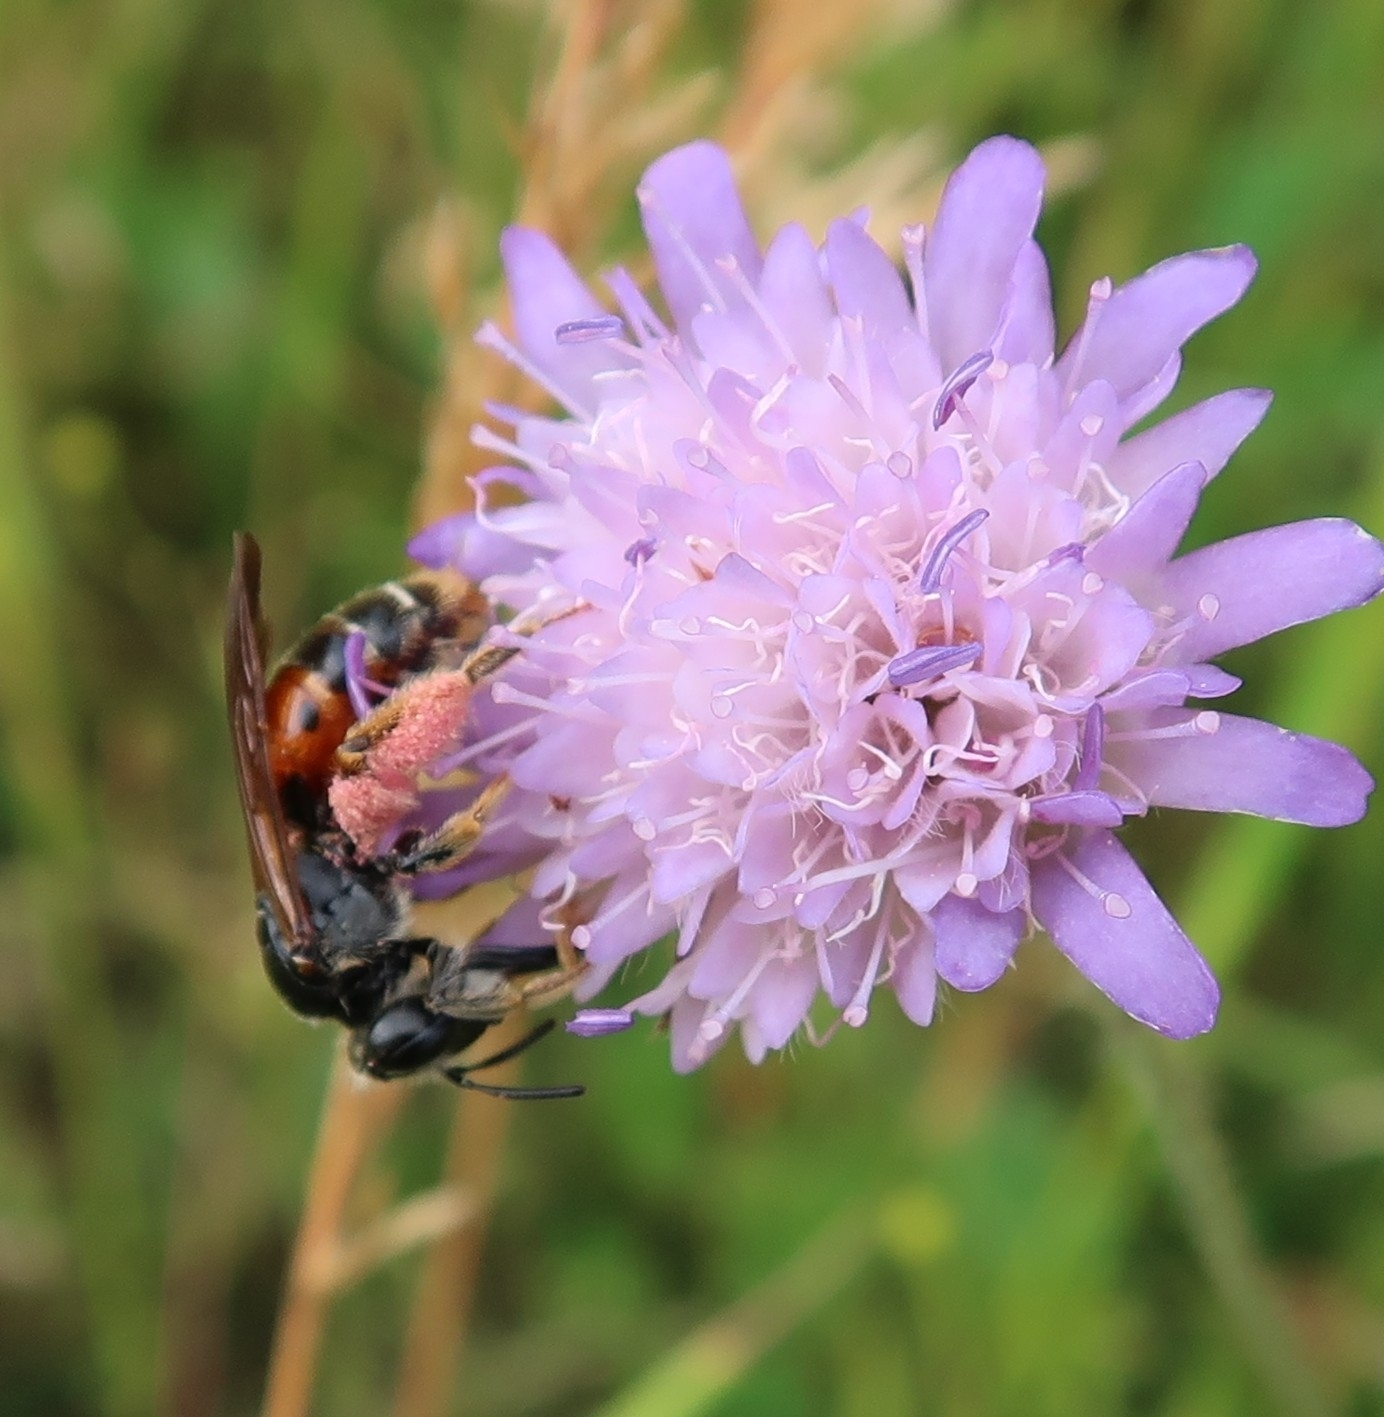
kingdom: Animalia
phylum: Arthropoda
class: Insecta
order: Hymenoptera
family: Andrenidae
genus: Andrena
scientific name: Andrena hattorfiana
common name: Large scabious mining bee
